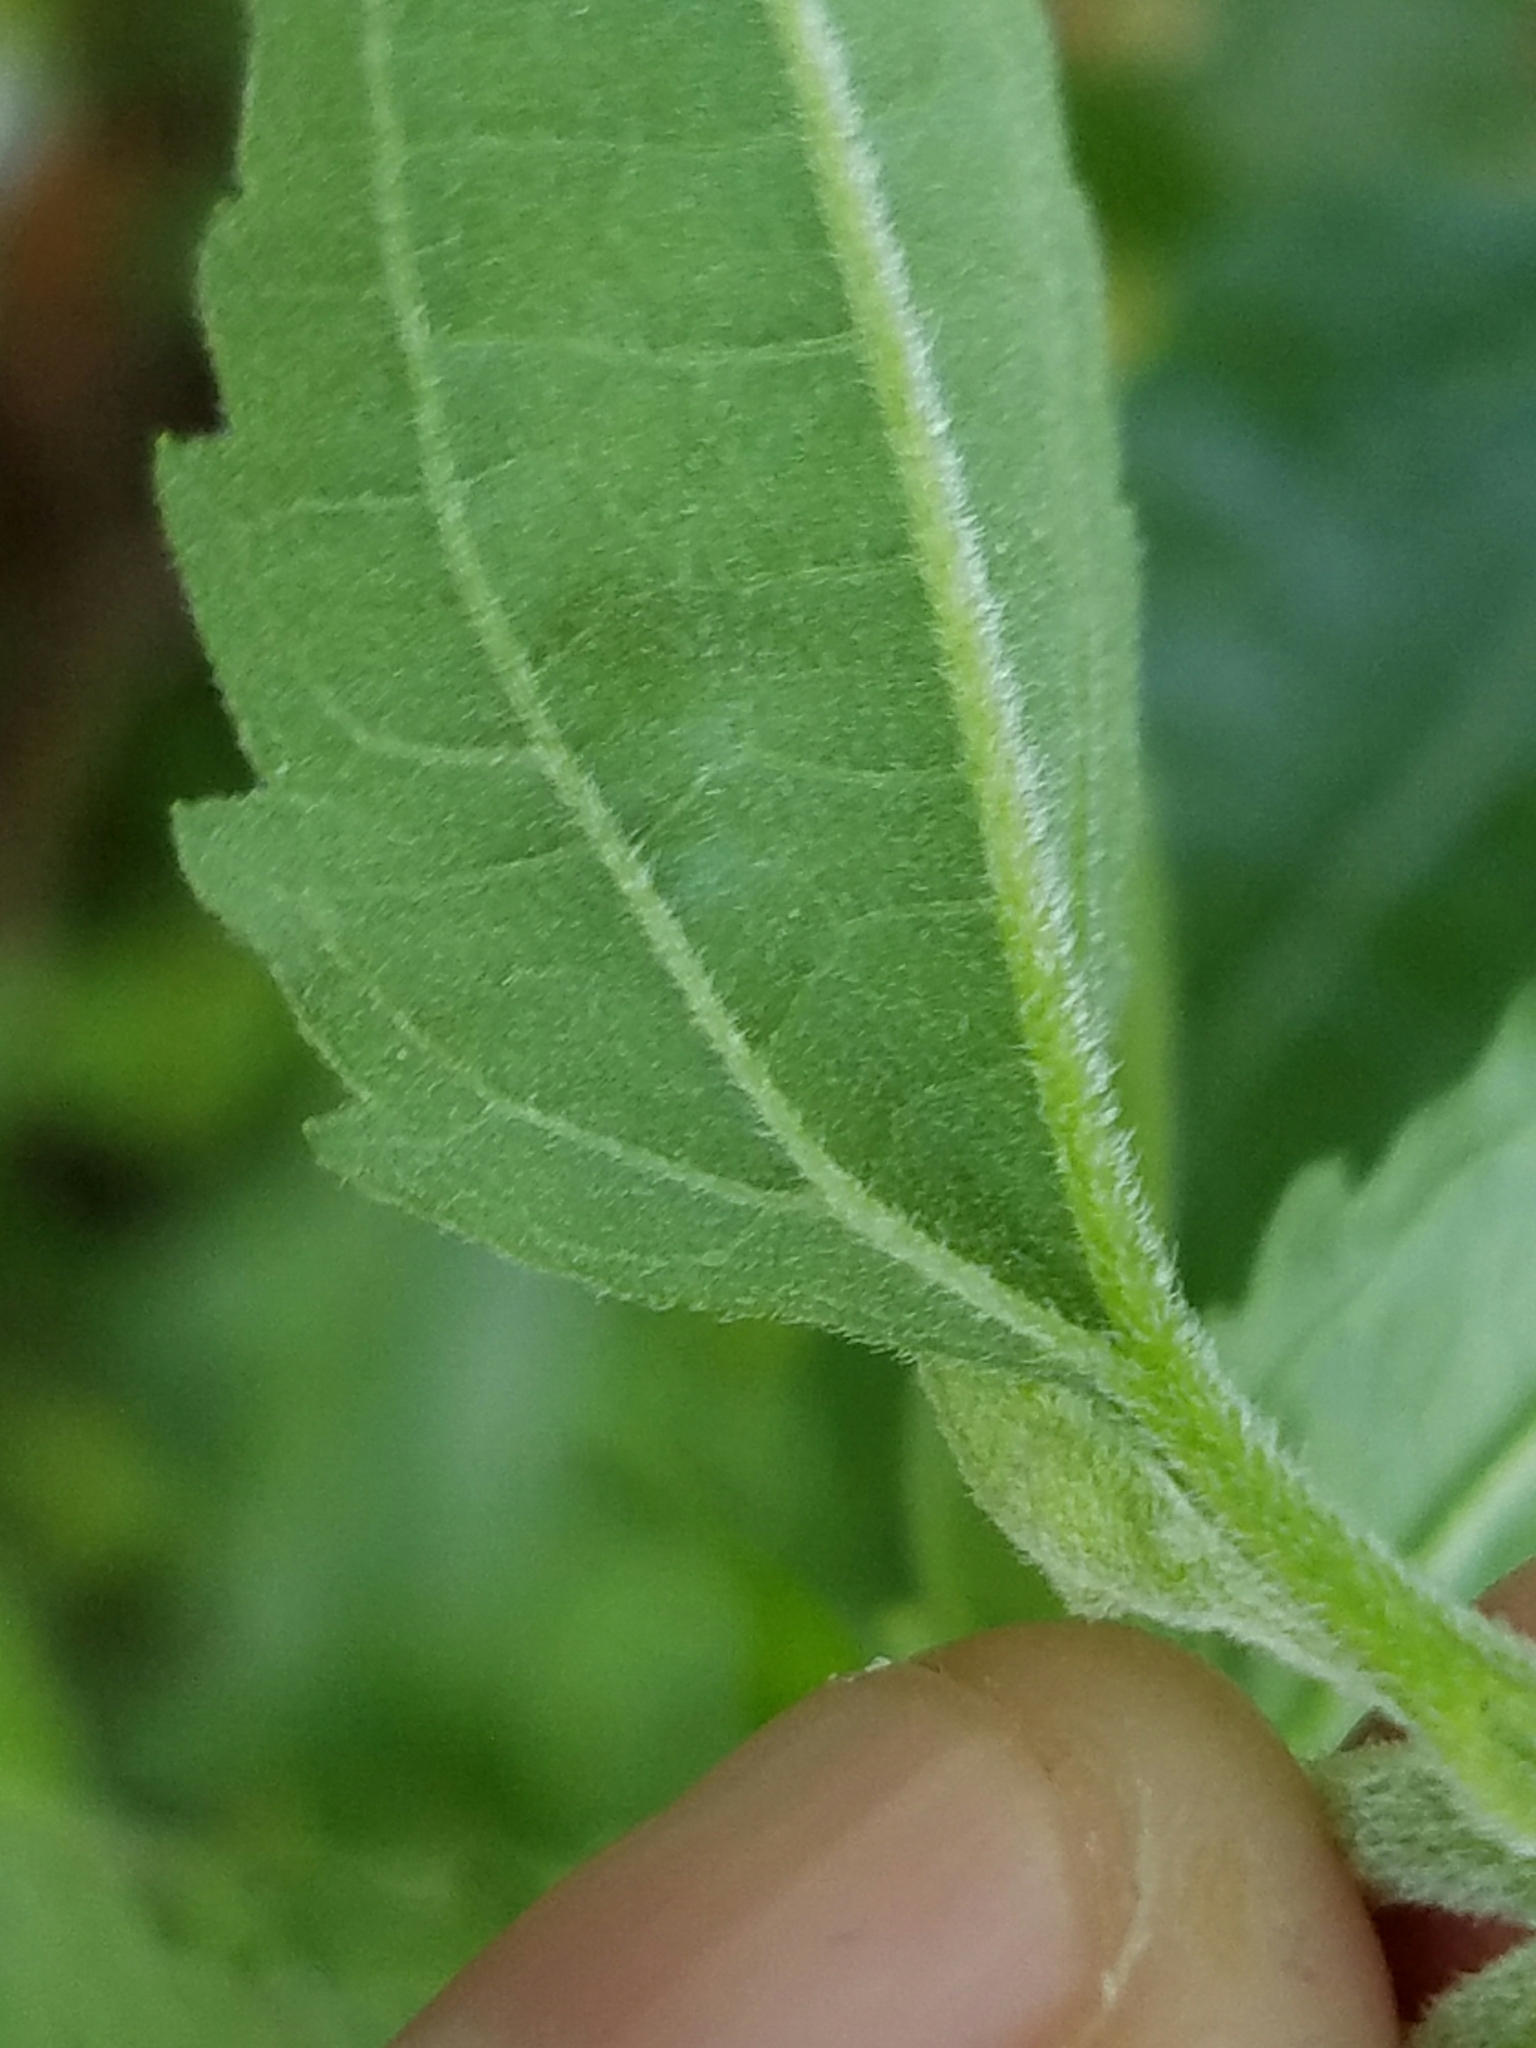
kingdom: Plantae
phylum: Tracheophyta
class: Magnoliopsida
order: Asterales
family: Asteraceae
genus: Eupatorium
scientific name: Eupatorium serotinum
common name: Late boneset
